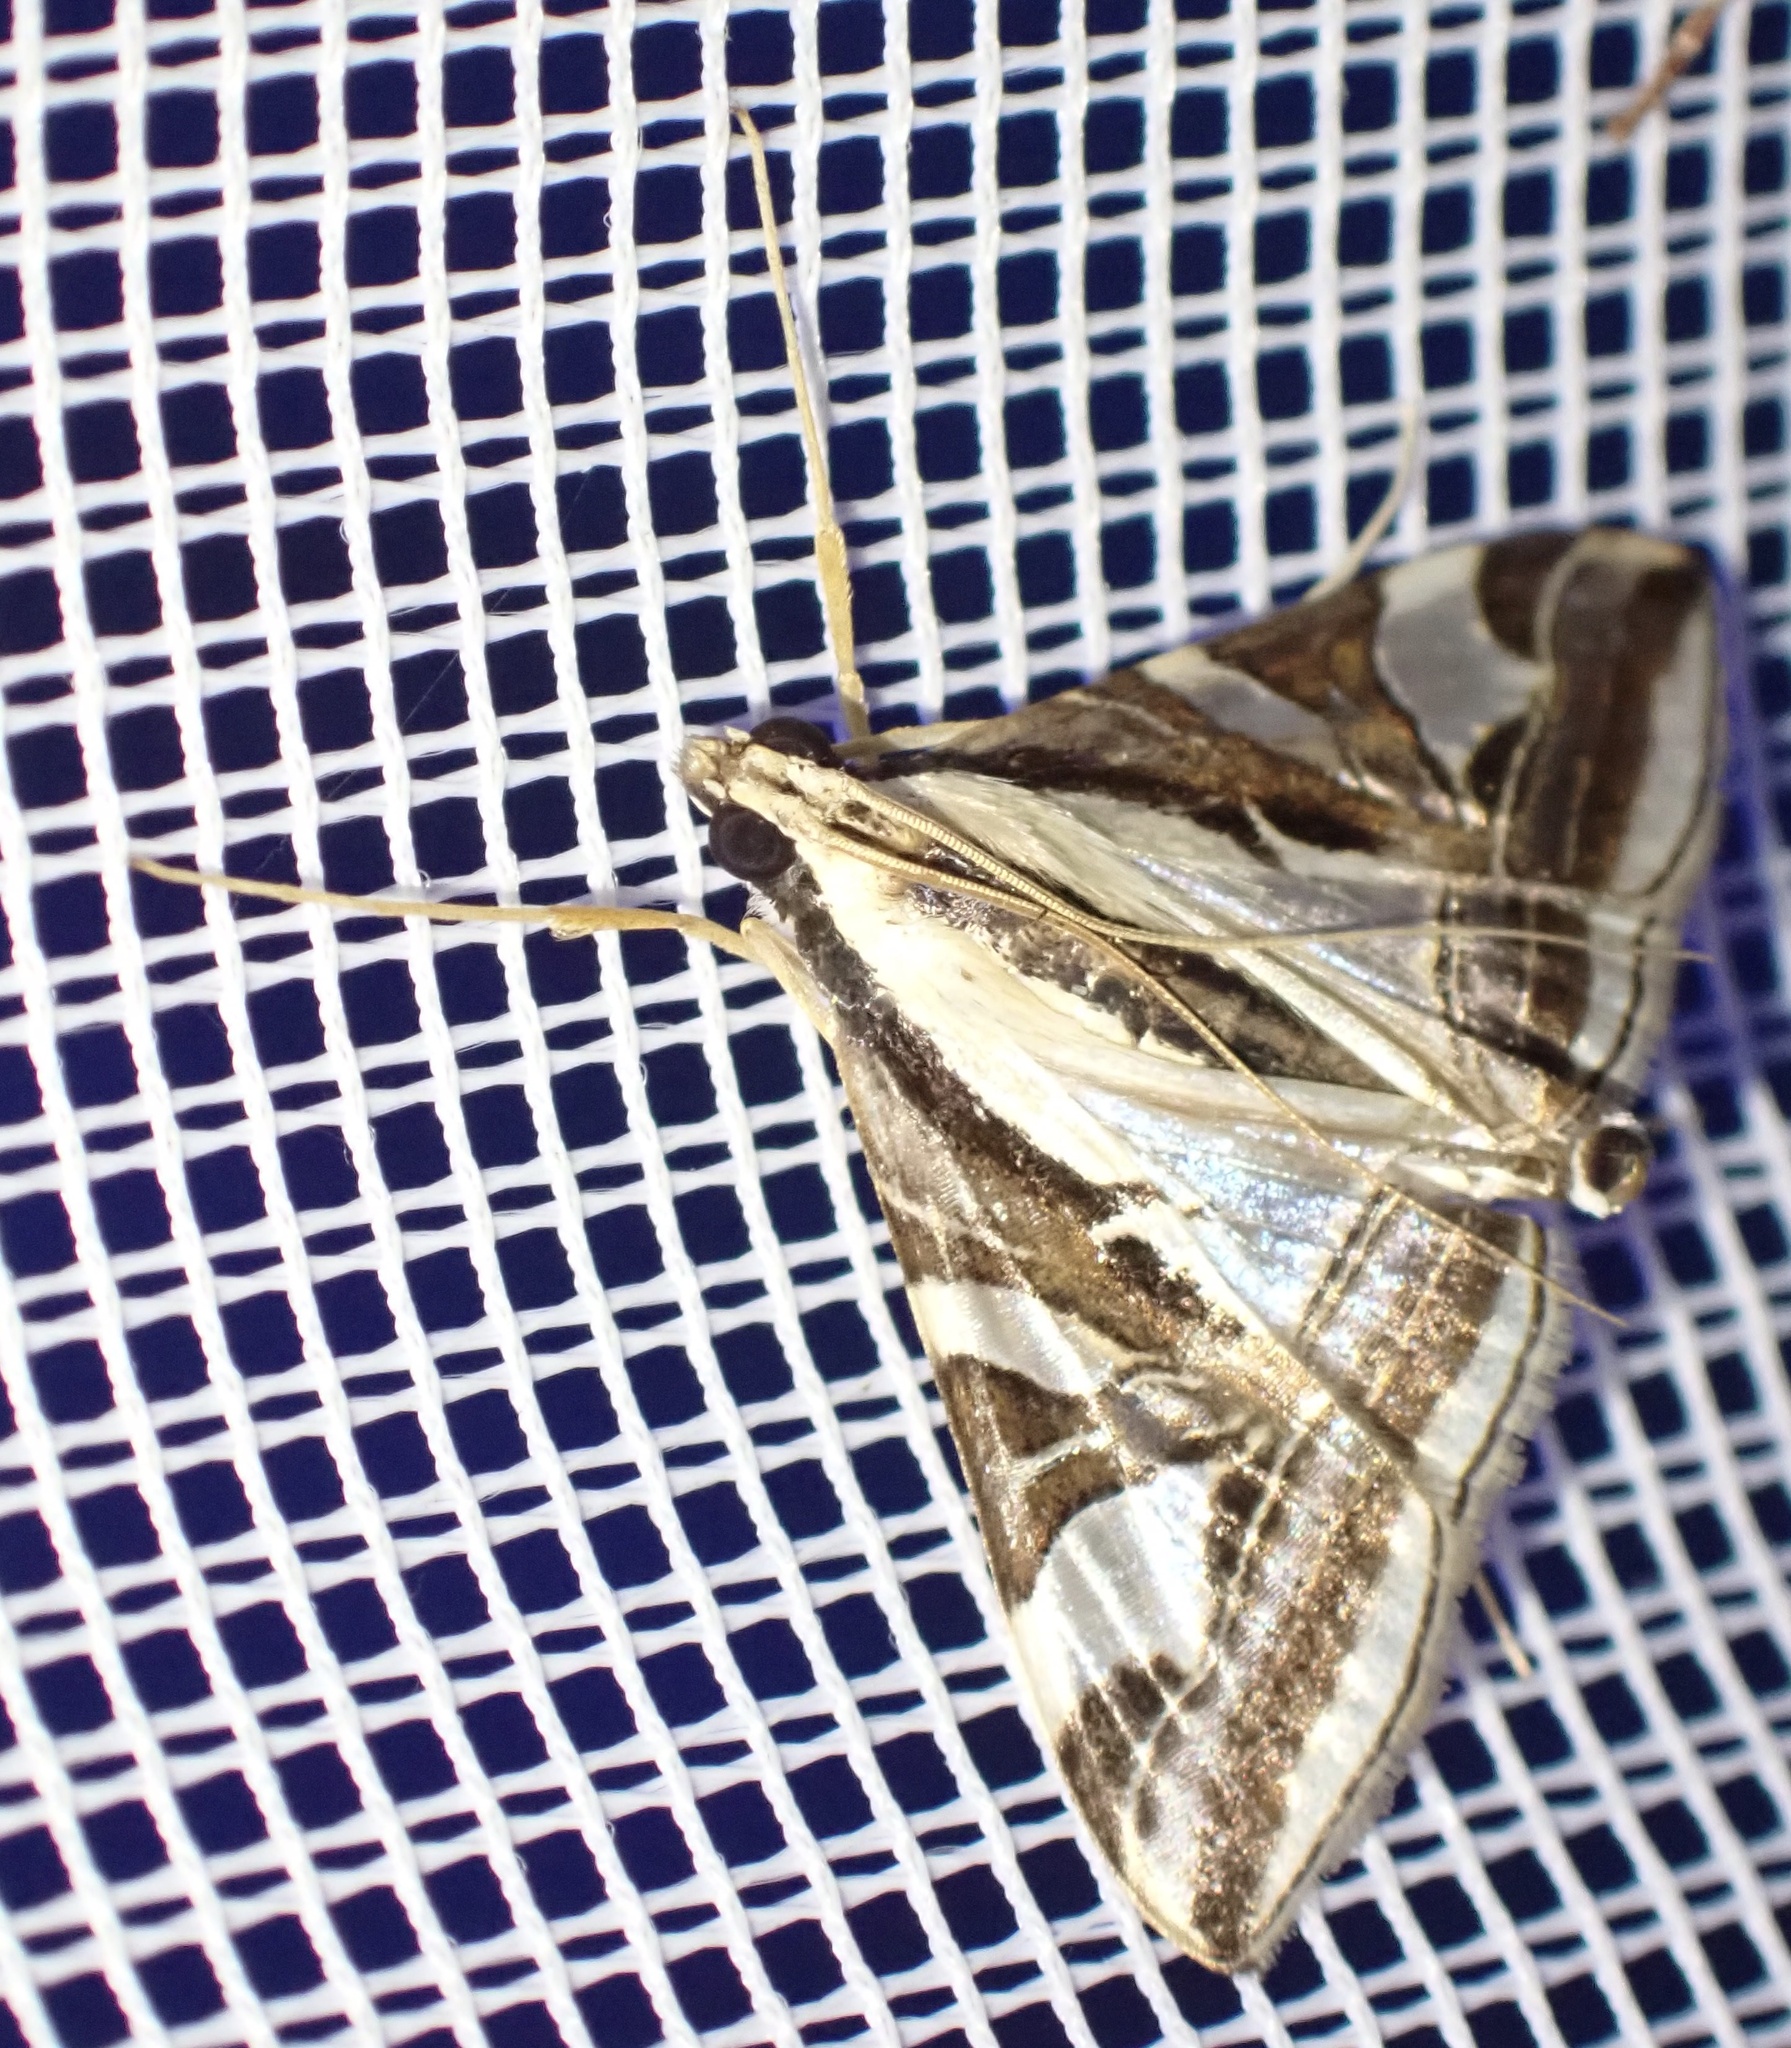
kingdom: Animalia
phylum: Arthropoda
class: Insecta
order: Lepidoptera
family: Crambidae
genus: Agrioglypta
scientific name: Agrioglypta excelsalis
